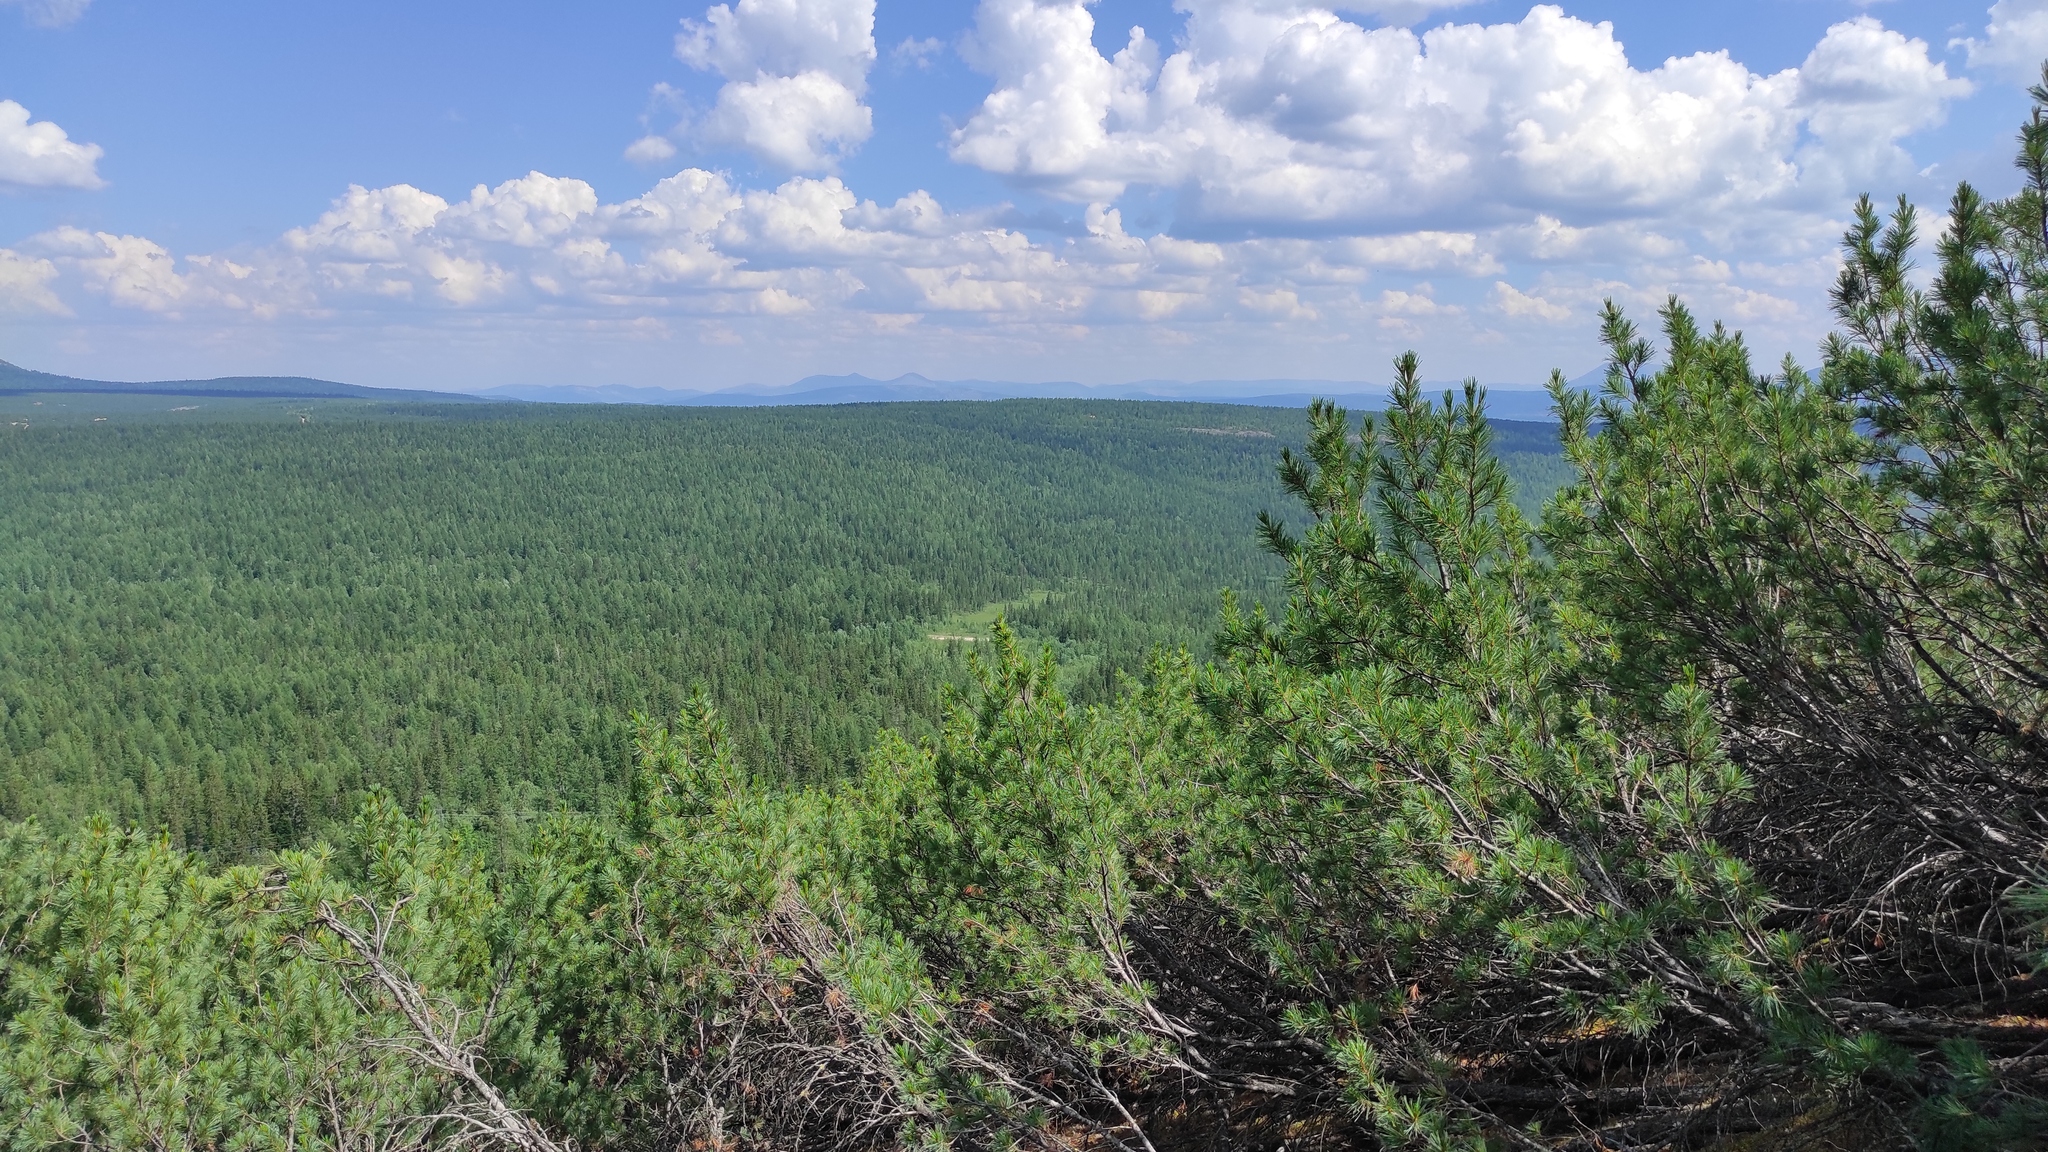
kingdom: Plantae
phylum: Tracheophyta
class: Pinopsida
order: Pinales
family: Pinaceae
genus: Pinus
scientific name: Pinus pumila
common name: Dwarf siberian pine
